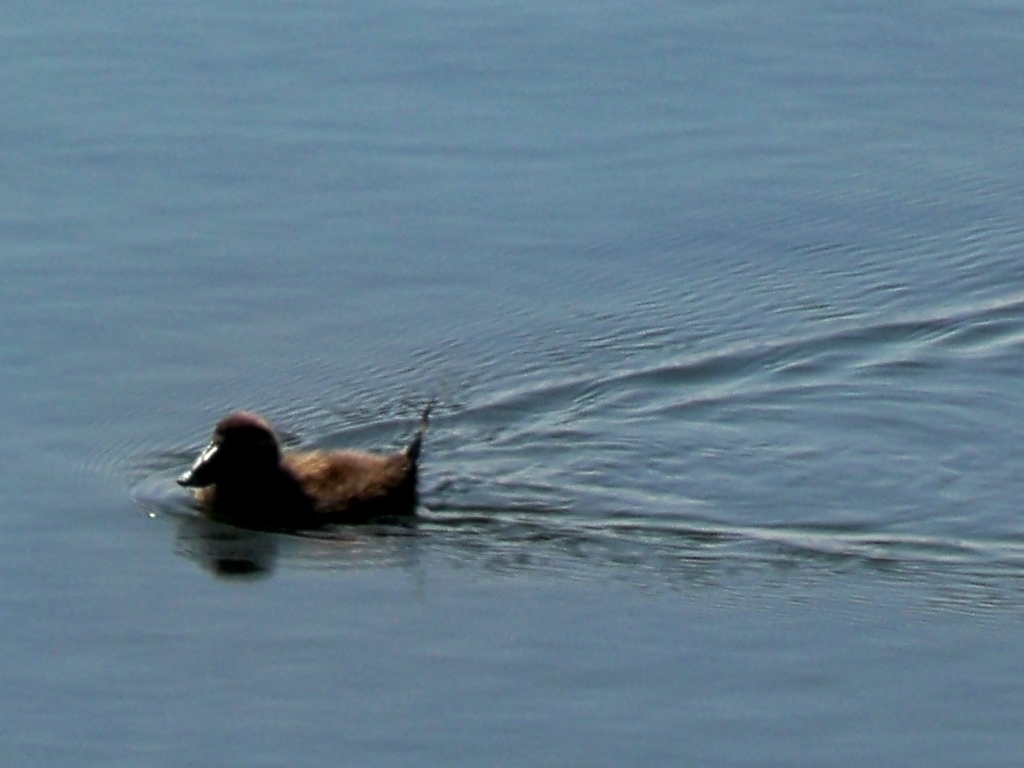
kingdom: Animalia
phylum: Chordata
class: Aves
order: Anseriformes
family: Anatidae
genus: Oxyura
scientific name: Oxyura leucocephala
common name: White-headed duck
